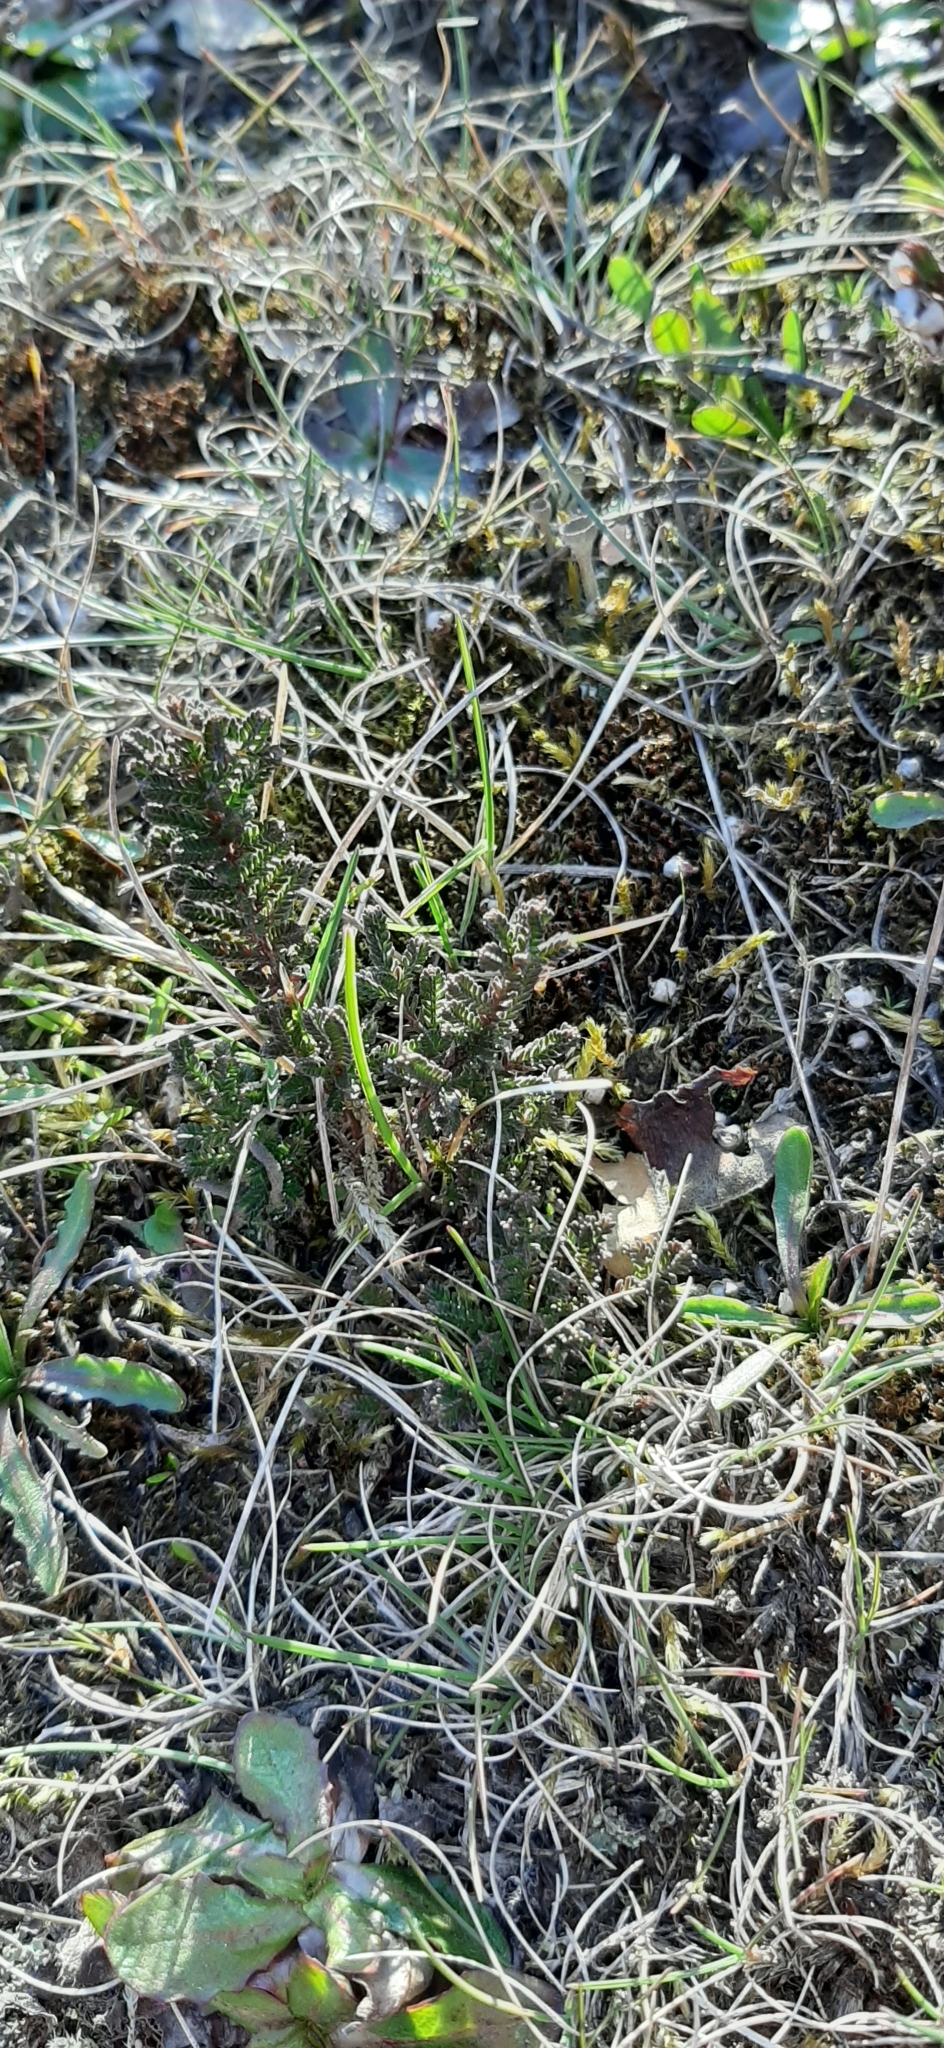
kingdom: Plantae
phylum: Tracheophyta
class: Magnoliopsida
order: Ericales
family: Ericaceae
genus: Calluna
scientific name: Calluna vulgaris
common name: Heather
